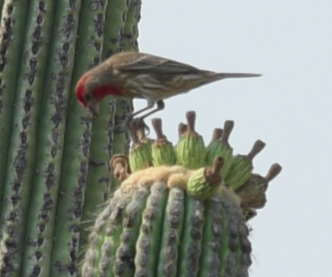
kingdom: Animalia
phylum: Chordata
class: Aves
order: Passeriformes
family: Fringillidae
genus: Haemorhous
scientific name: Haemorhous mexicanus
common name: House finch
